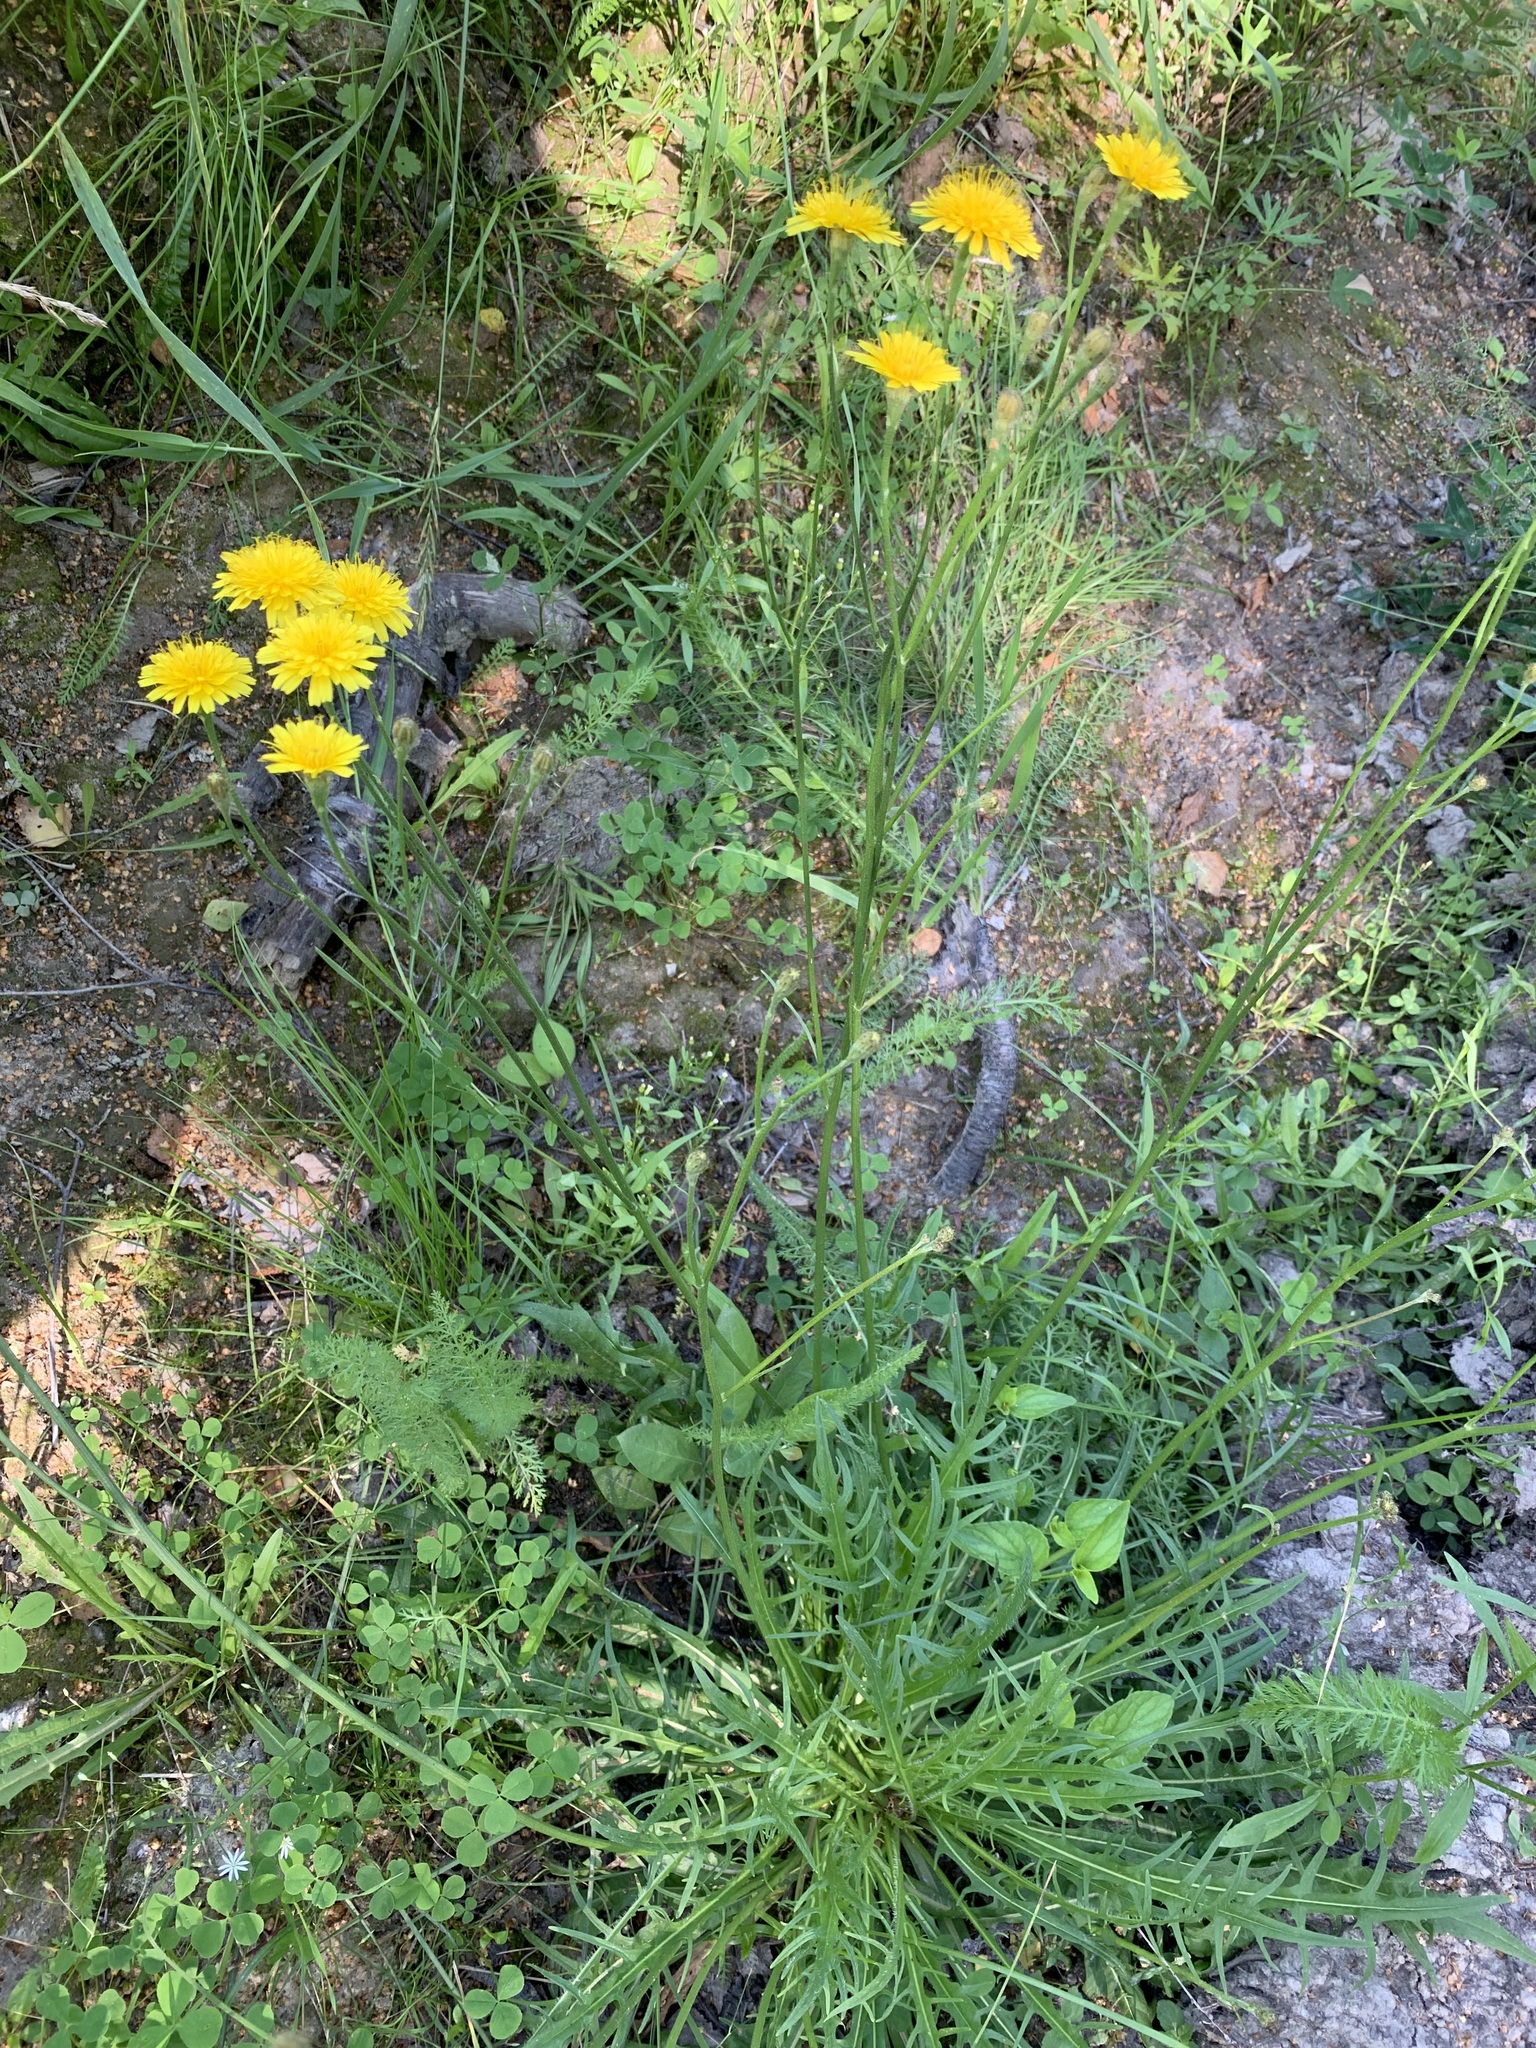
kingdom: Plantae
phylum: Tracheophyta
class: Magnoliopsida
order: Asterales
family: Asteraceae
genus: Scorzoneroides
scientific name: Scorzoneroides autumnalis
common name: Autumn hawkbit
